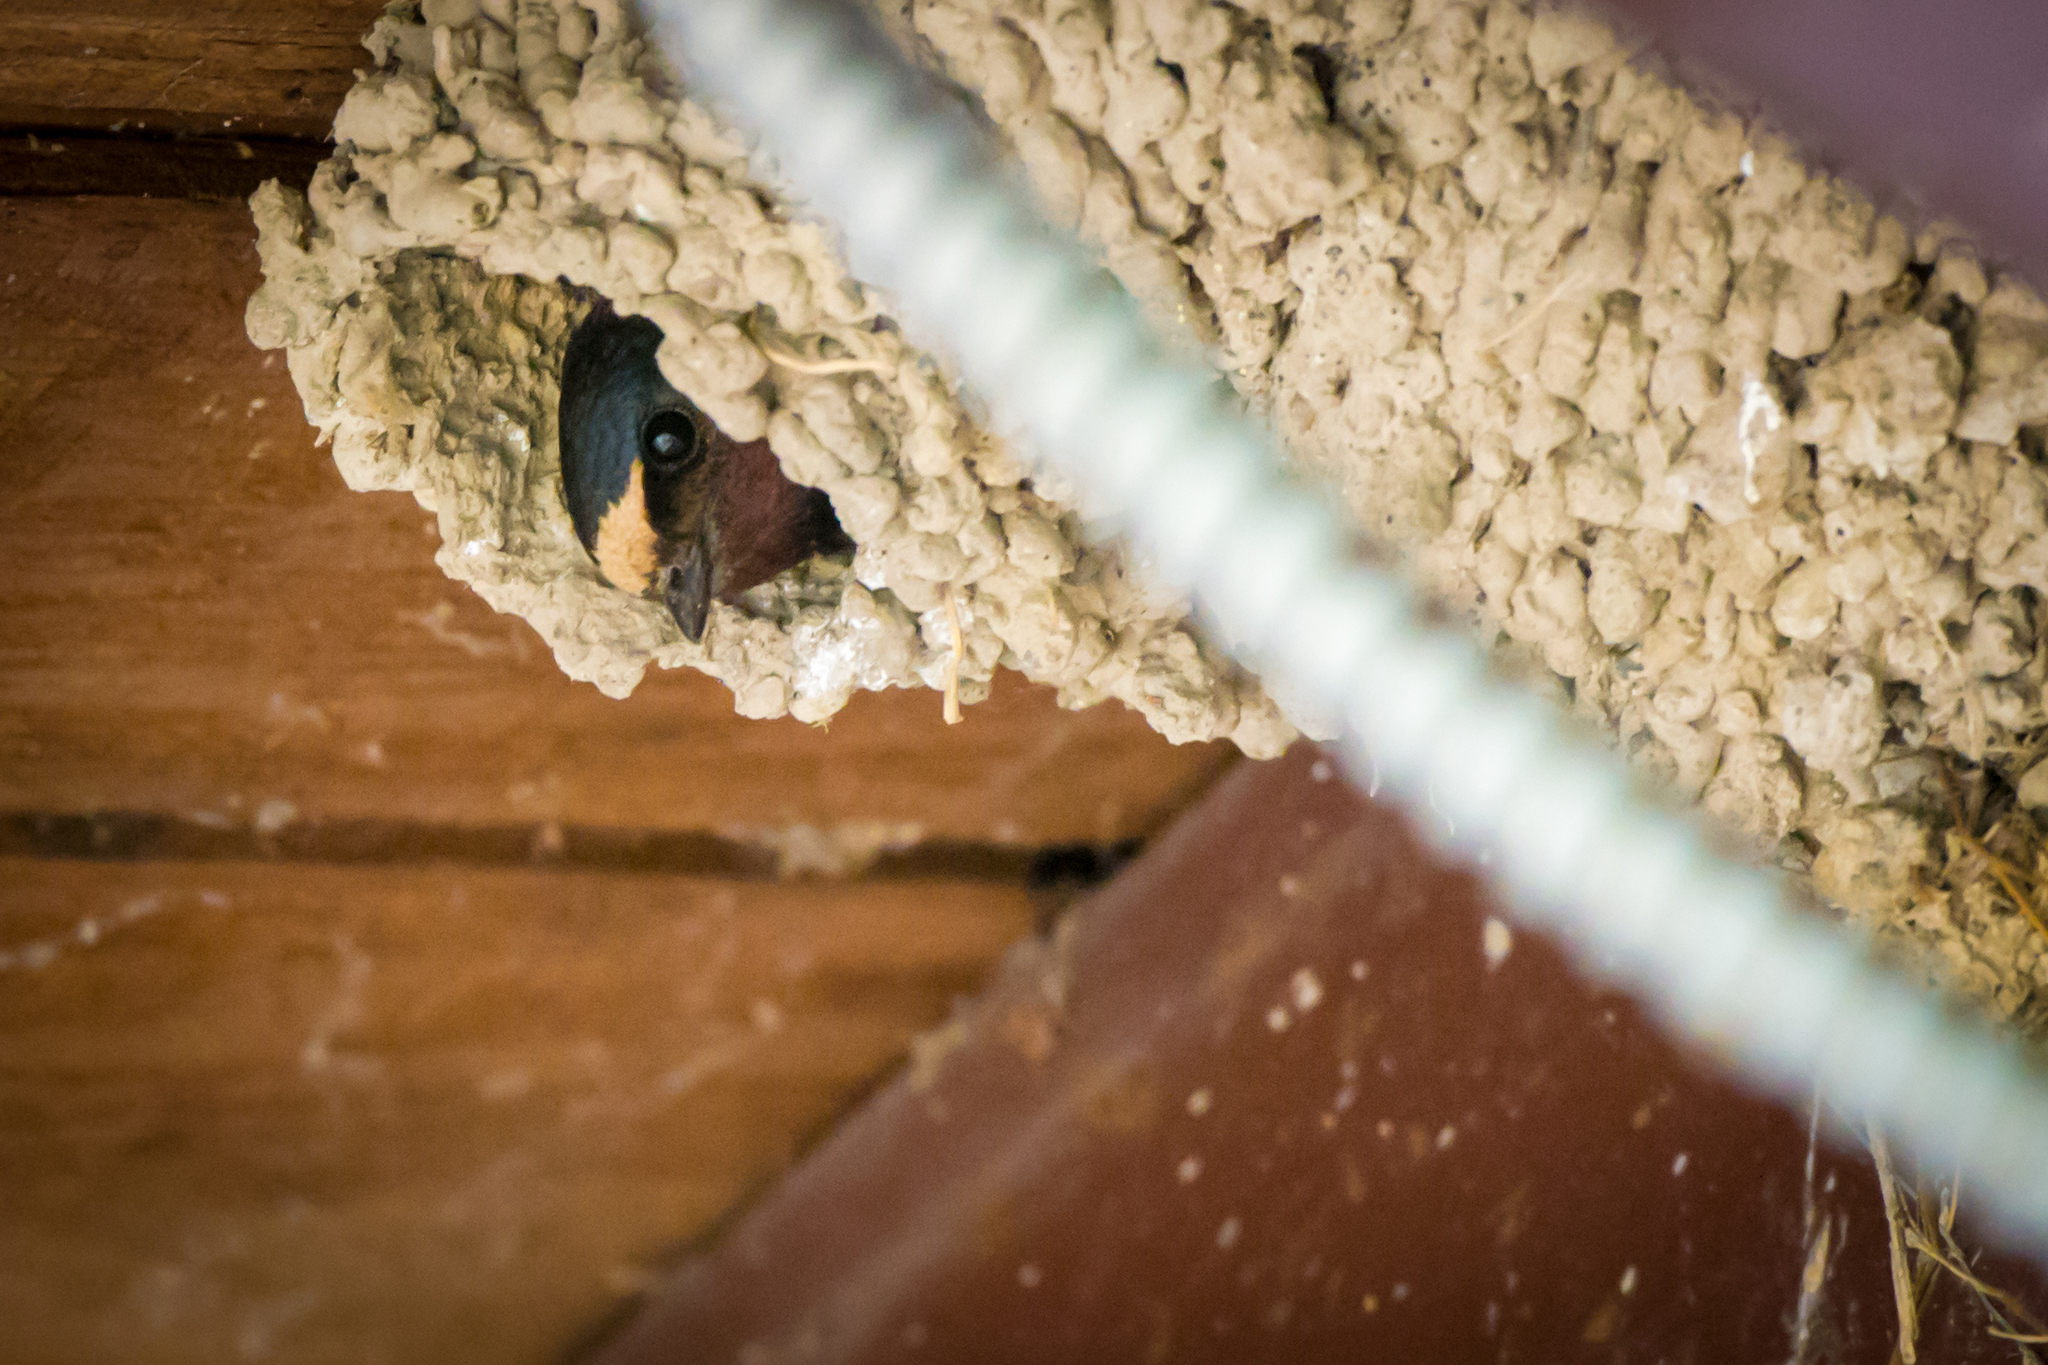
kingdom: Animalia
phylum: Chordata
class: Aves
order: Passeriformes
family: Hirundinidae
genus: Petrochelidon
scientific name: Petrochelidon pyrrhonota
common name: American cliff swallow
